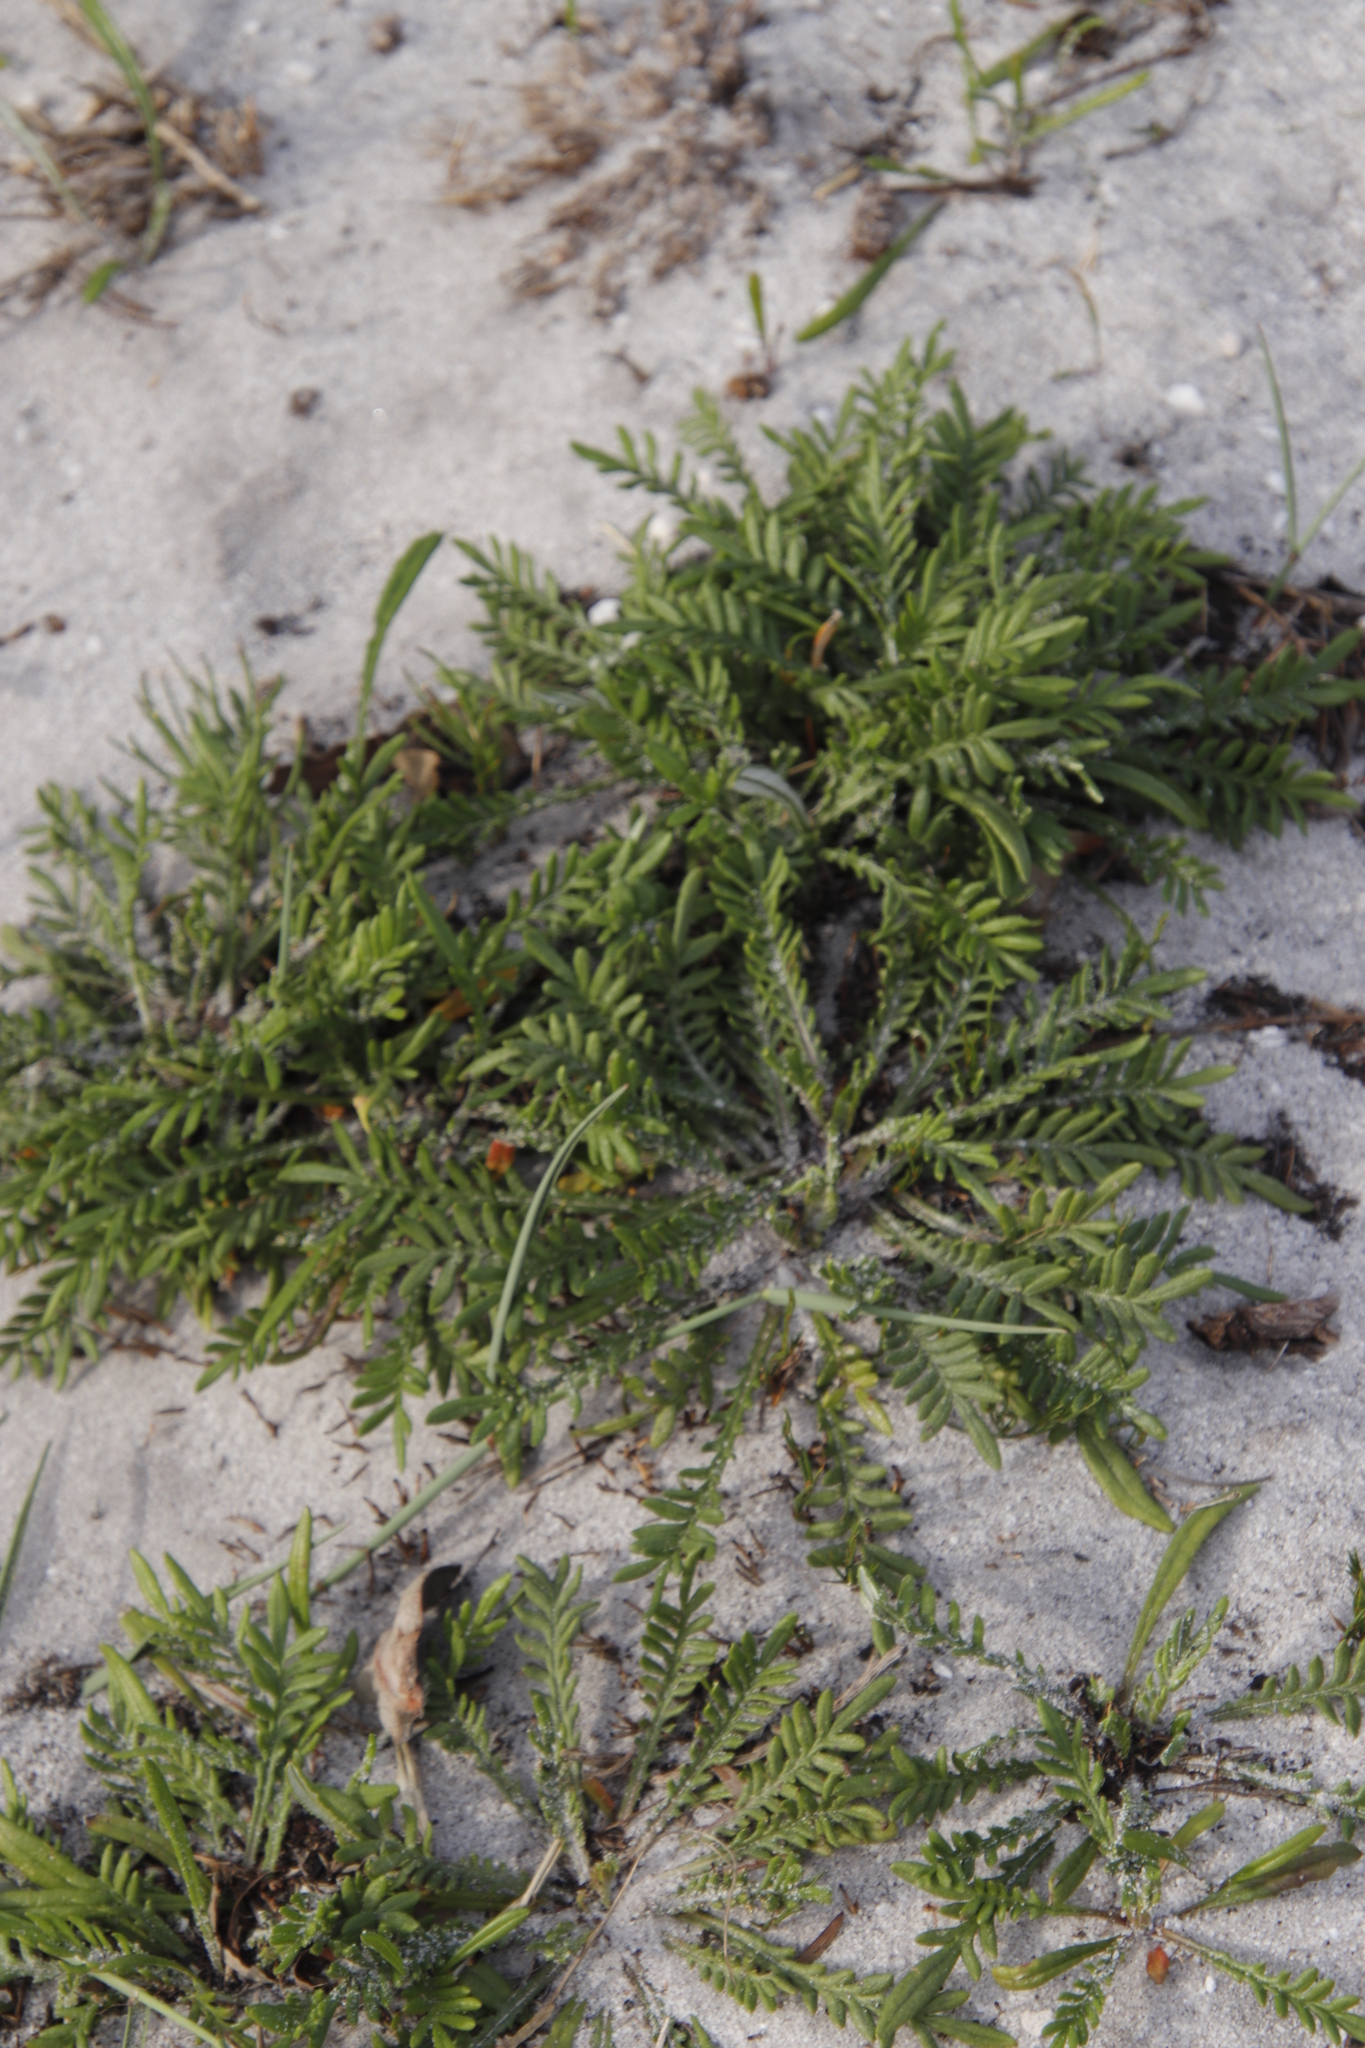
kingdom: Plantae
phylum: Tracheophyta
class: Magnoliopsida
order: Asterales
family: Asteraceae
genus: Gazania
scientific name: Gazania pectinata
